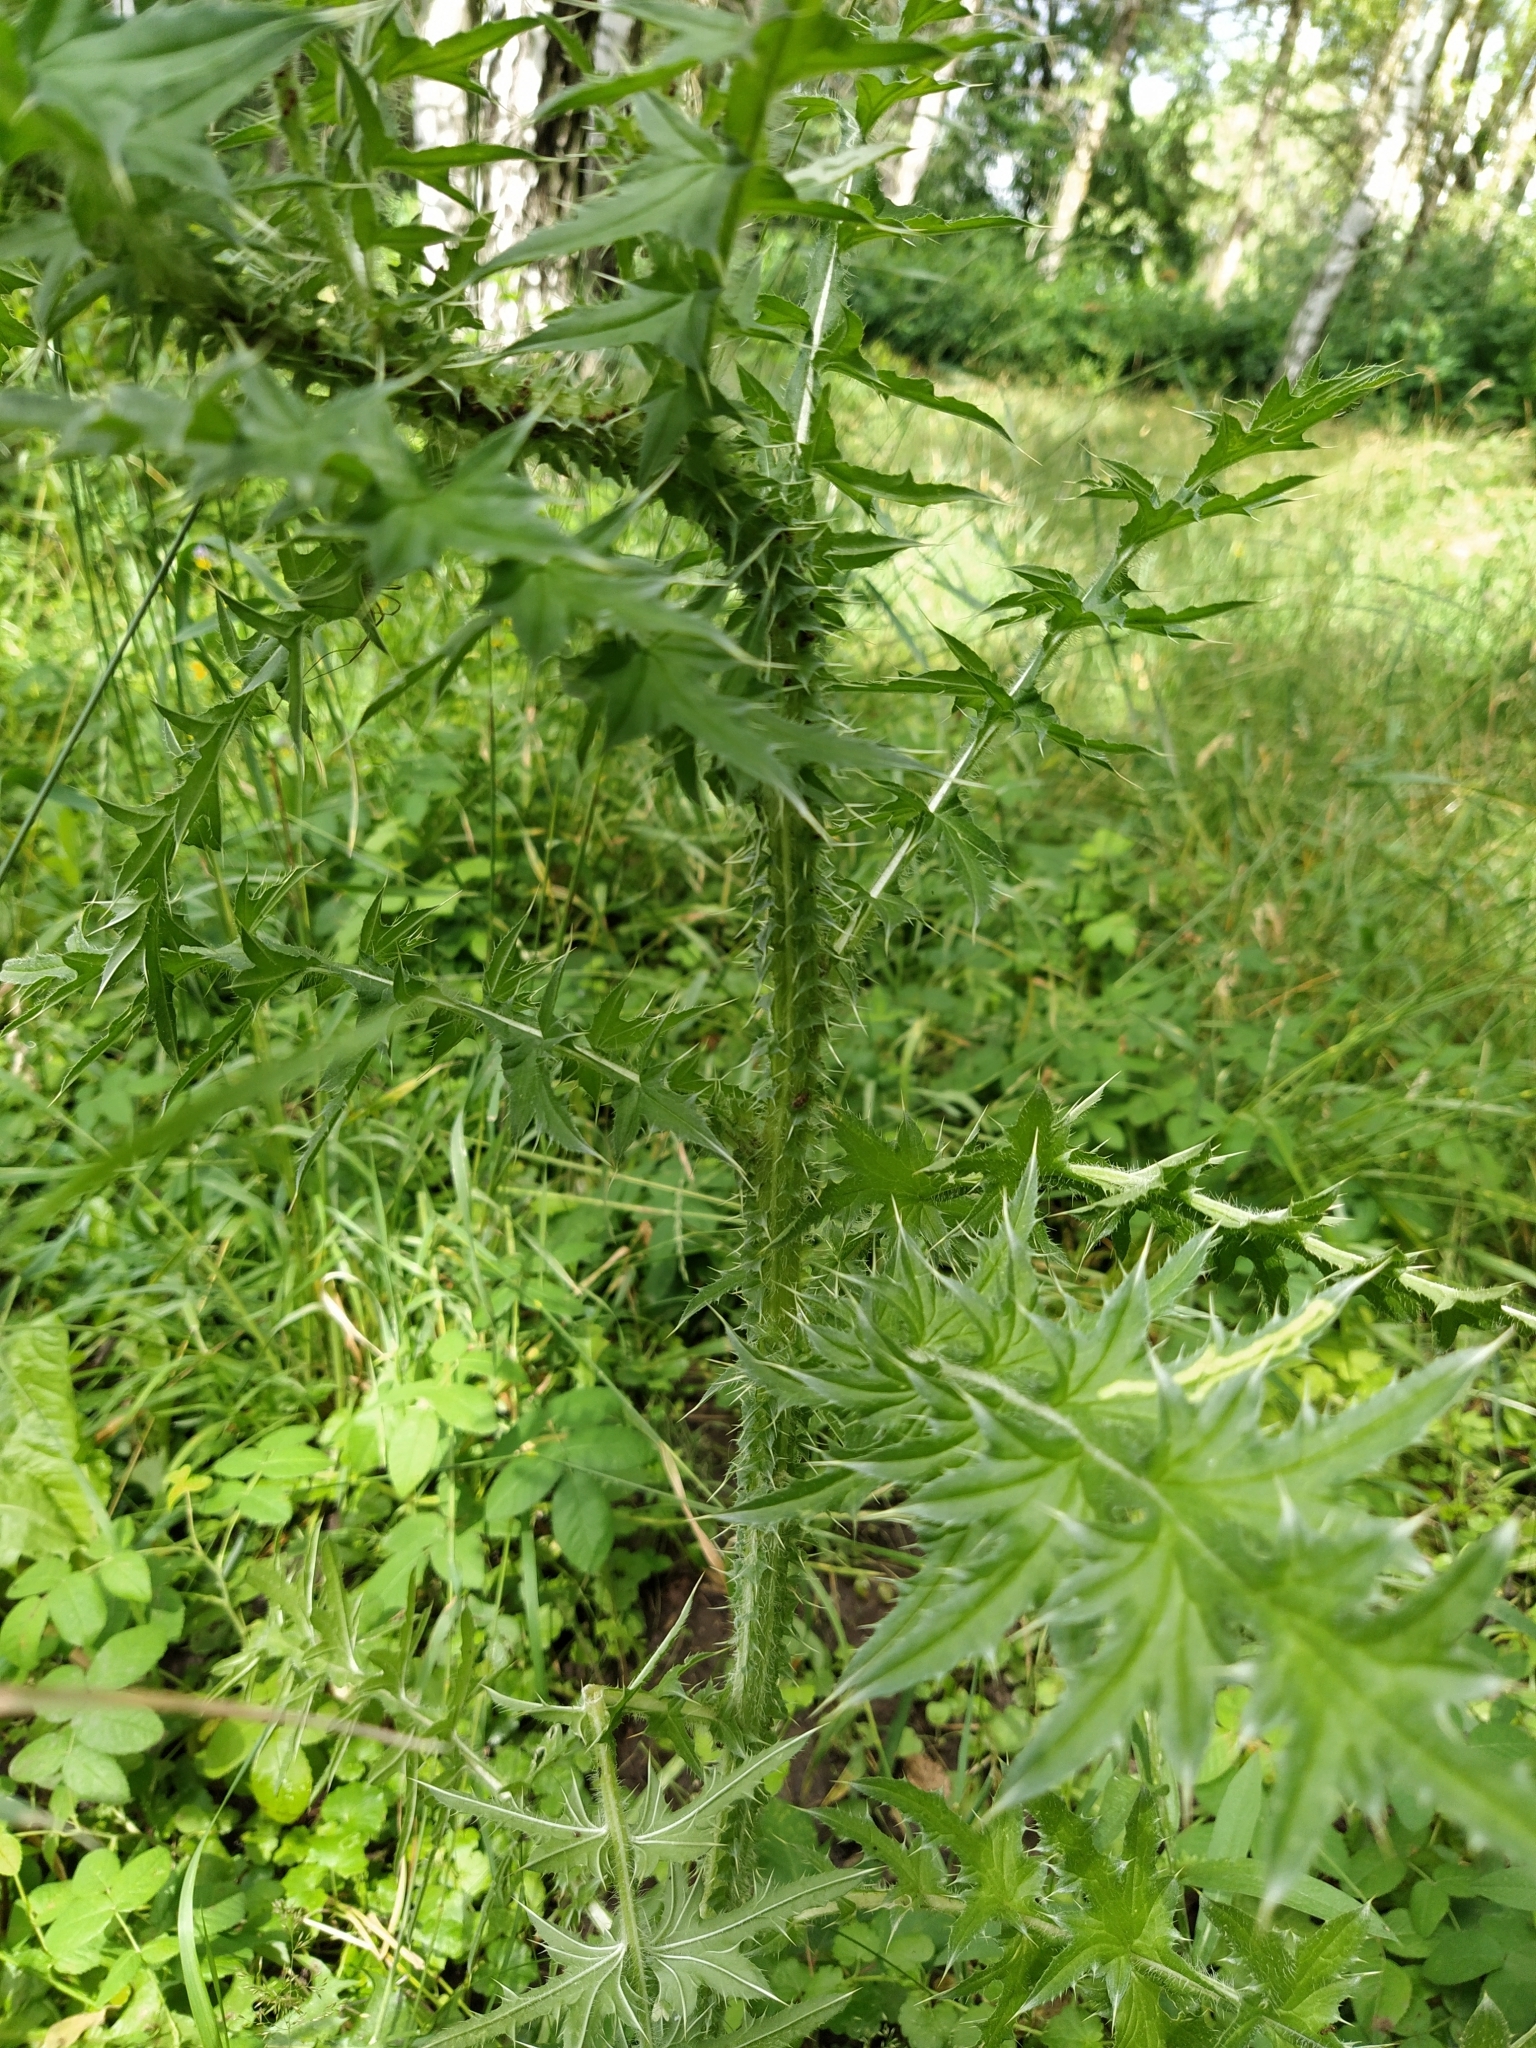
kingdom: Plantae
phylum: Tracheophyta
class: Magnoliopsida
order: Asterales
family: Asteraceae
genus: Carduus
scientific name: Carduus acanthoides
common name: Plumeless thistle
